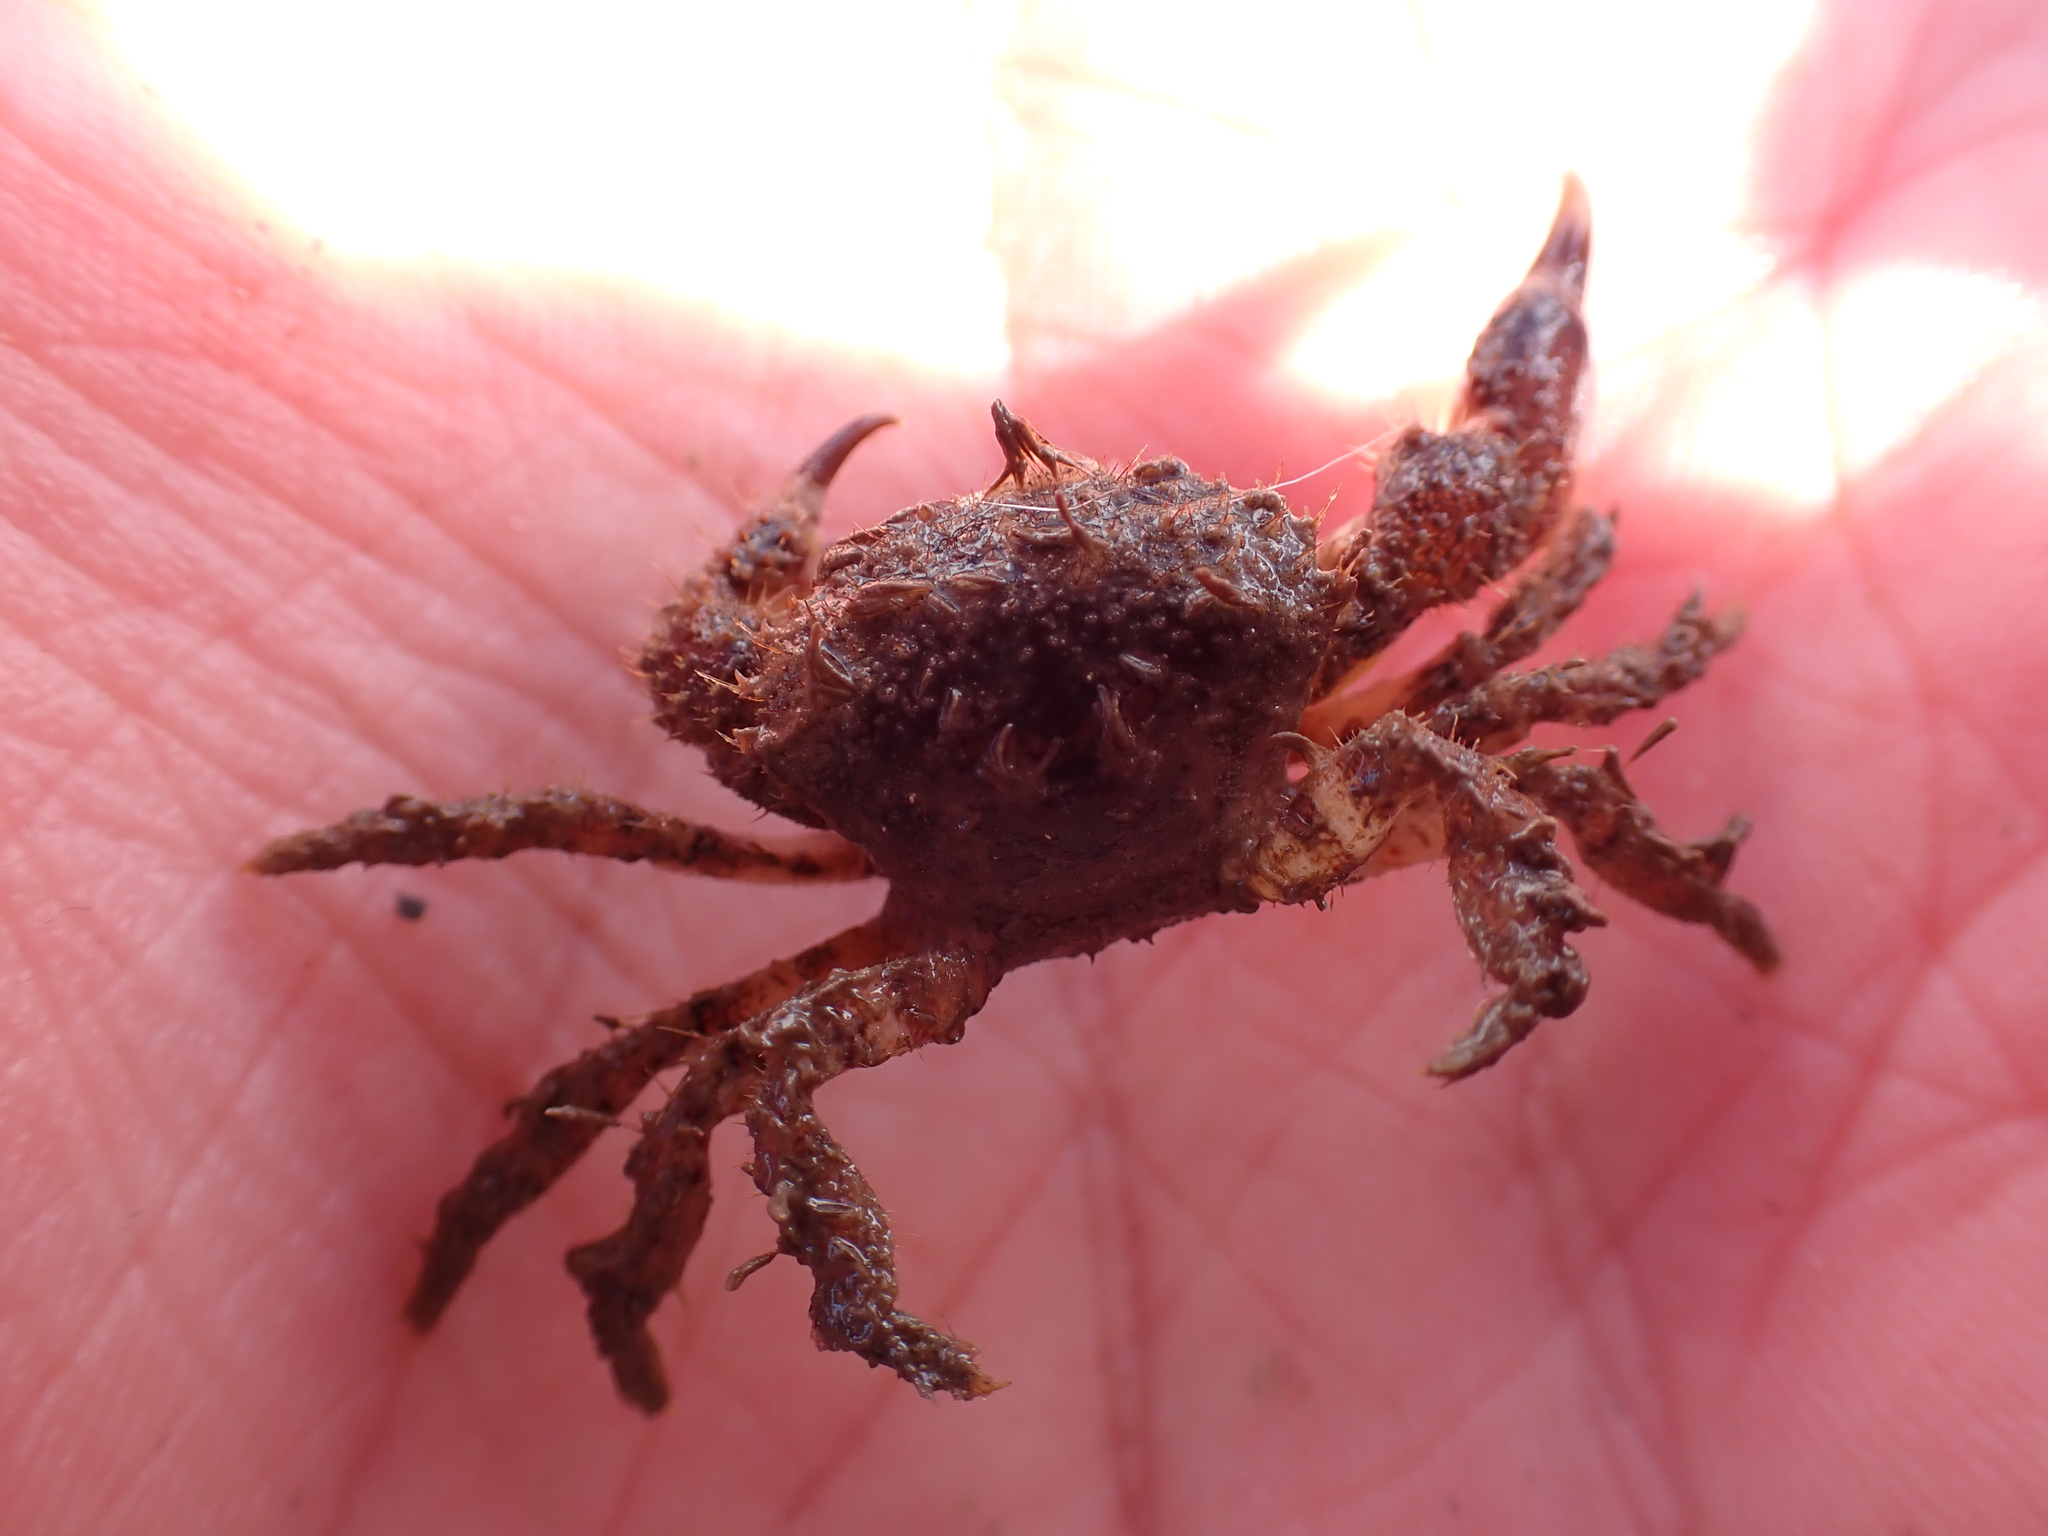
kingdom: Animalia
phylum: Arthropoda
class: Malacostraca
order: Decapoda
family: Pilumnidae
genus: Pilumnus
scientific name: Pilumnus hirtellus
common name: Hairy crab
